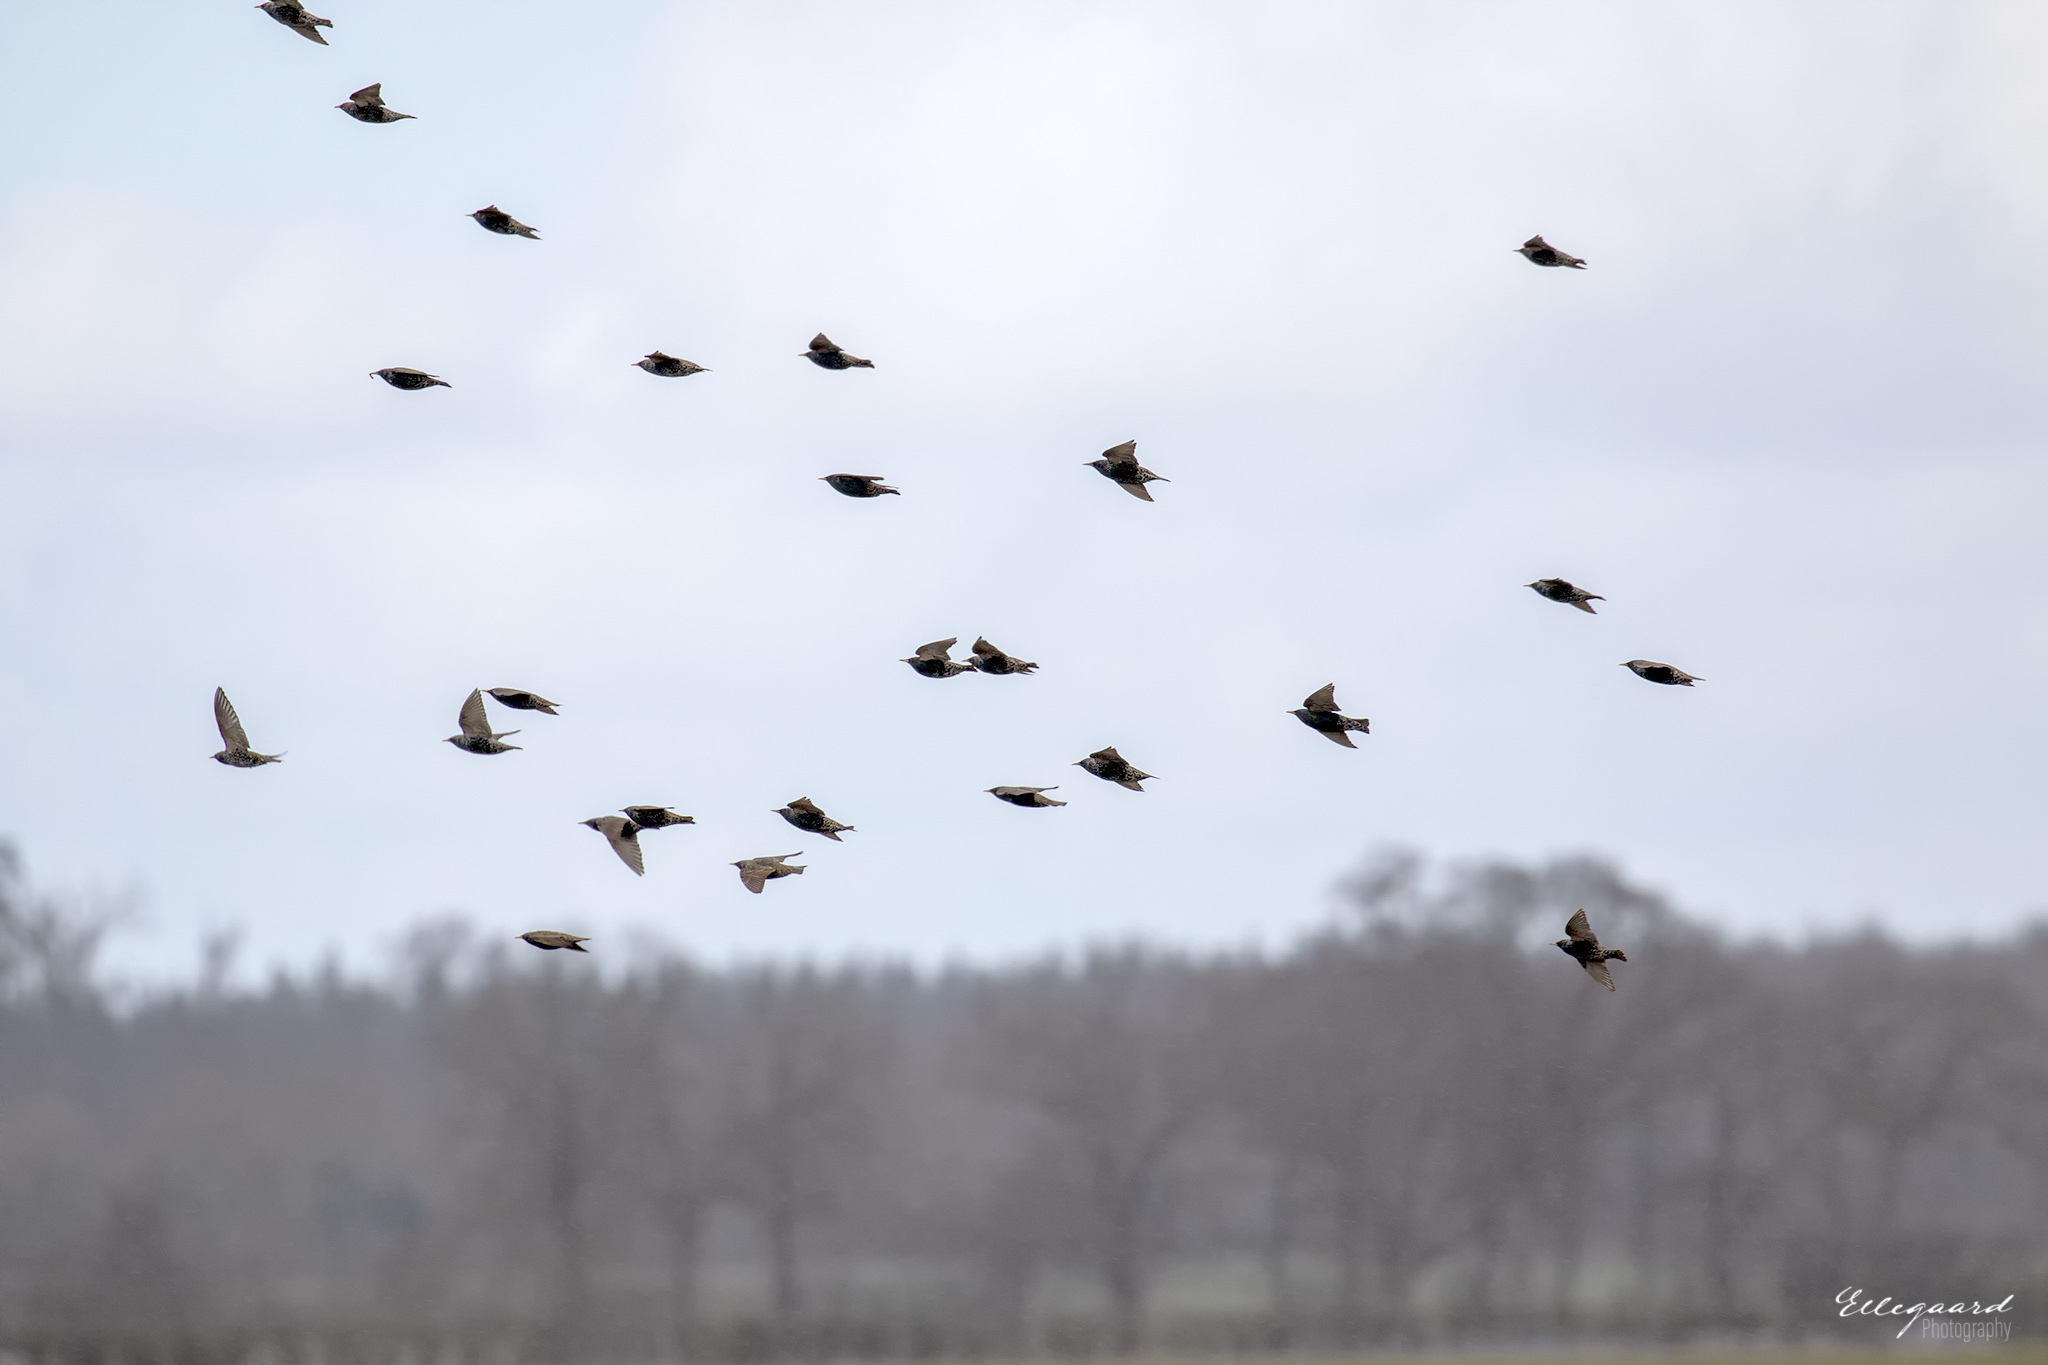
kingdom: Animalia
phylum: Chordata
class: Aves
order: Passeriformes
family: Sturnidae
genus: Sturnus
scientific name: Sturnus vulgaris
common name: Common starling
